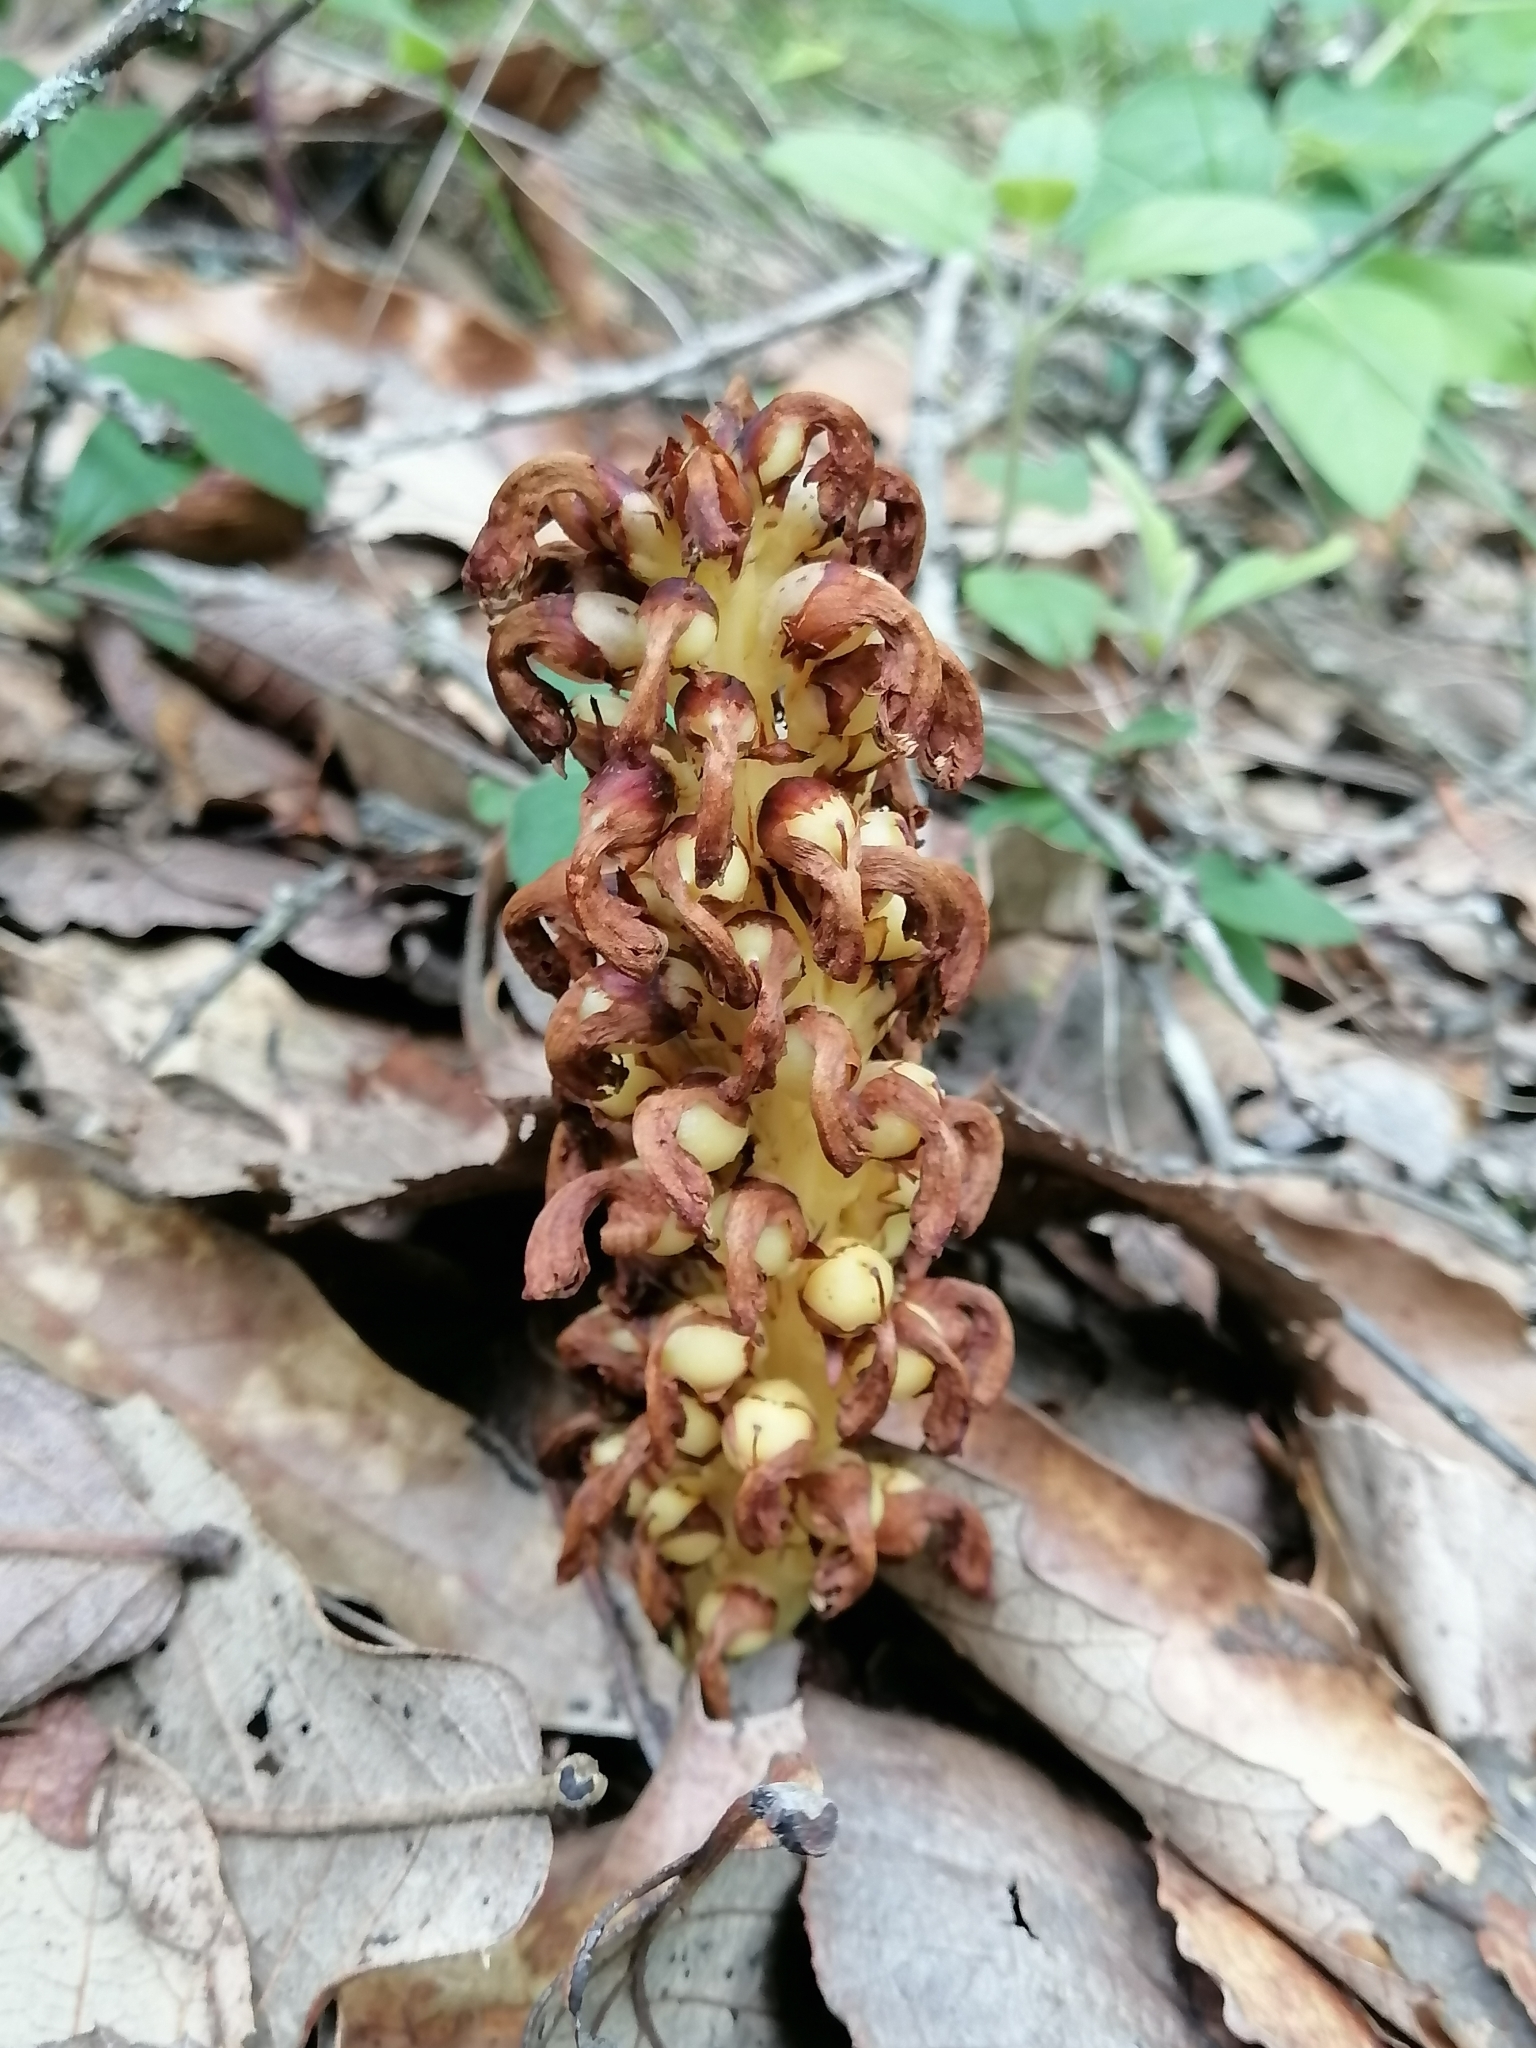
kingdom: Plantae
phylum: Tracheophyta
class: Magnoliopsida
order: Lamiales
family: Orobanchaceae
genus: Conopholis
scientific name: Conopholis alpina
